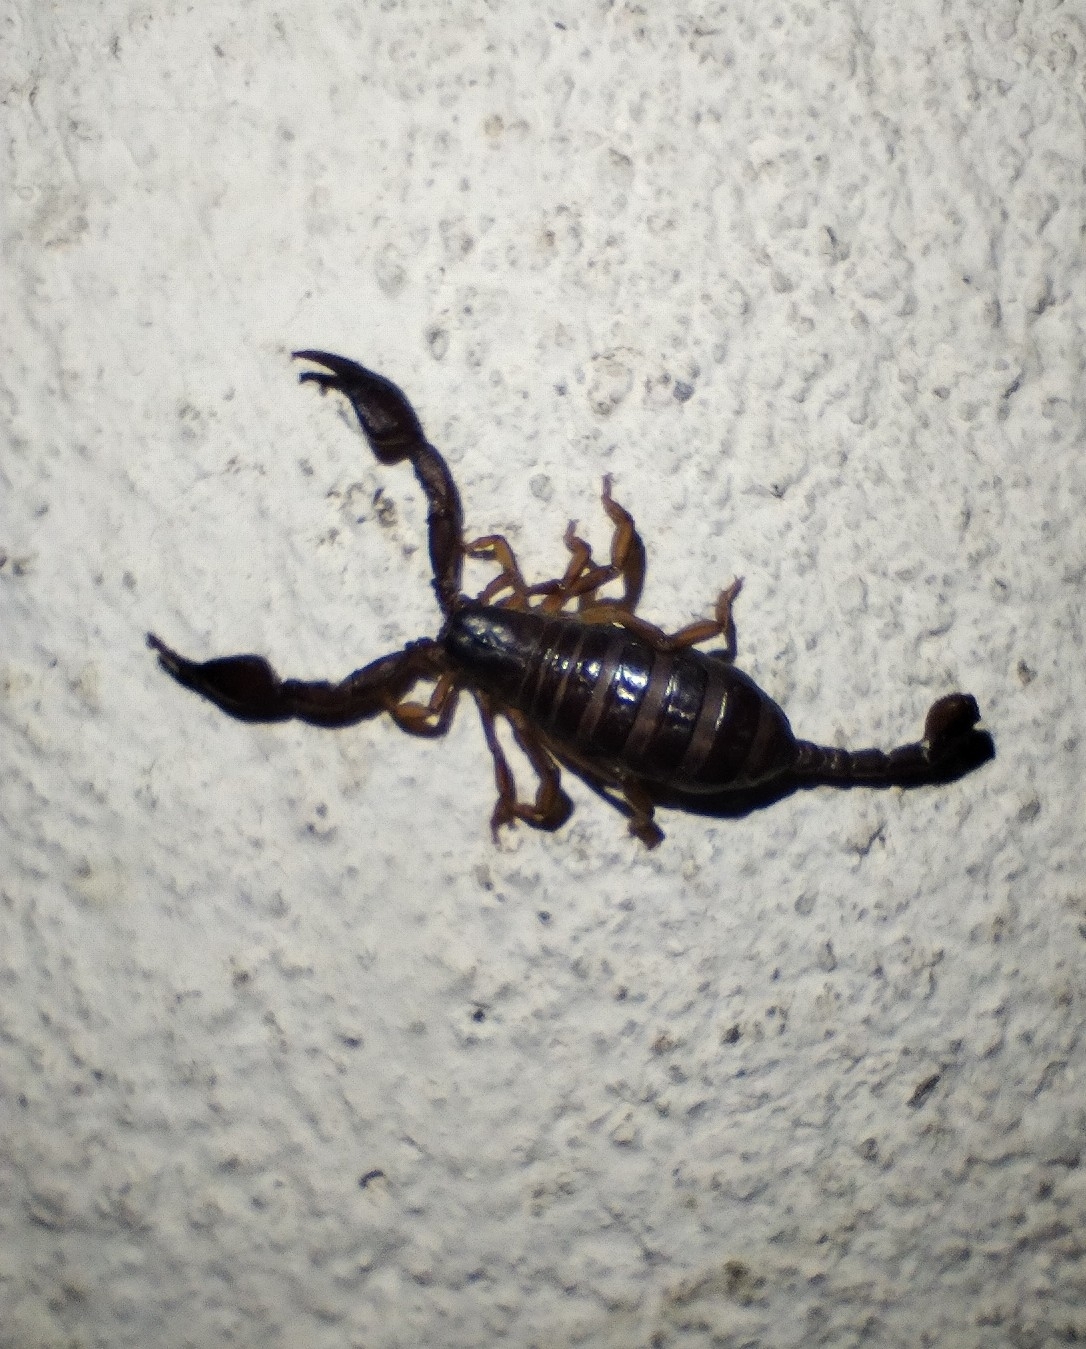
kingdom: Animalia
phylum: Arthropoda
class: Arachnida
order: Scorpiones
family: Euscorpiidae
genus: Euscorpius
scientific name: Euscorpius deltshevi
